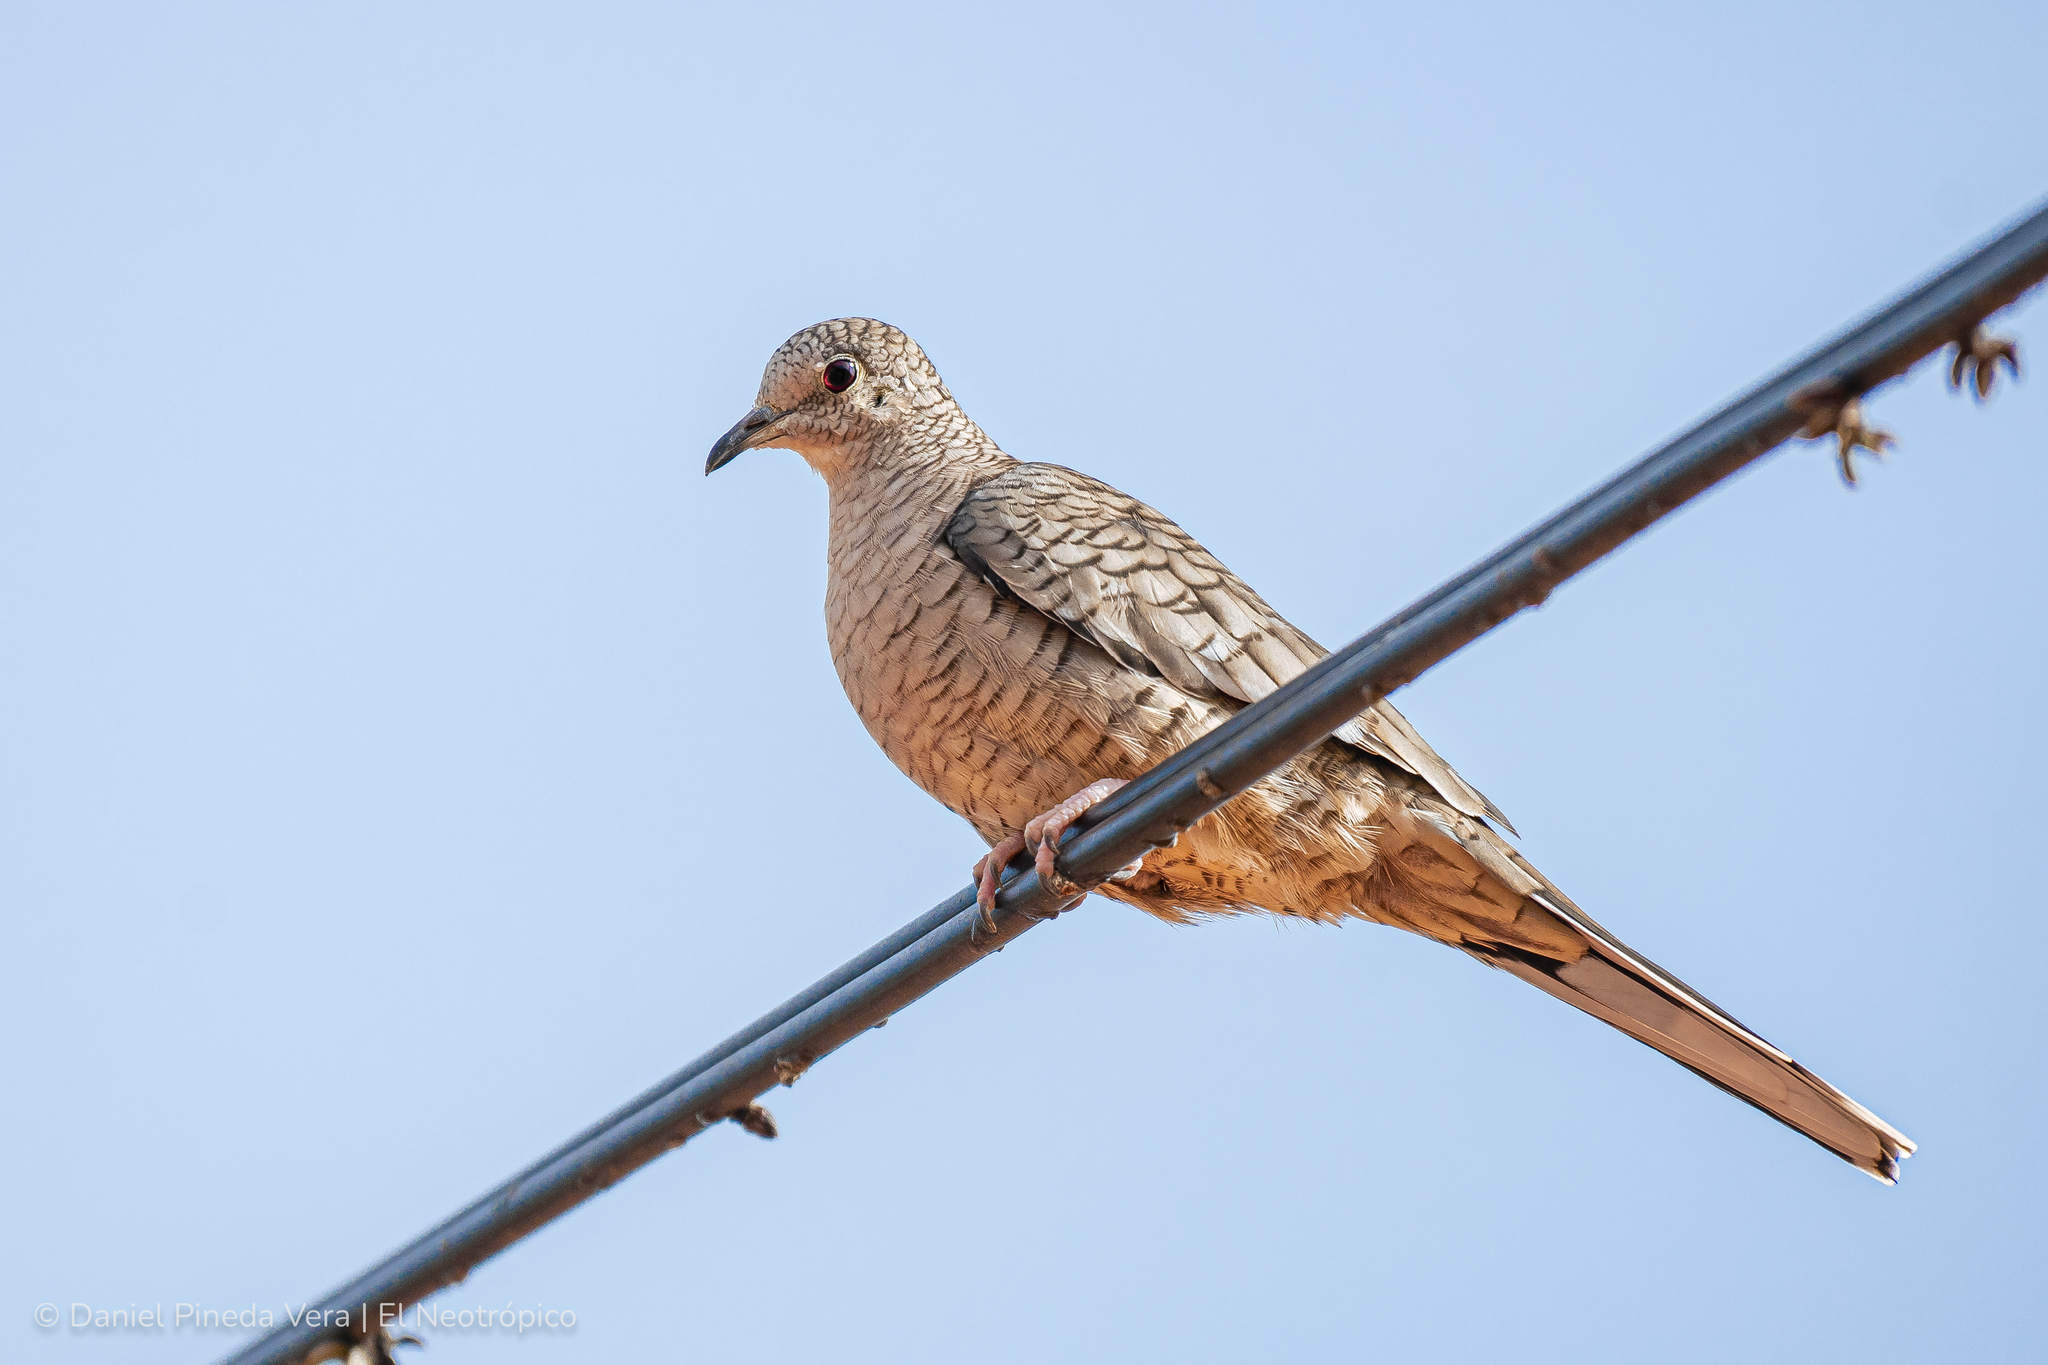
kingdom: Animalia
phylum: Chordata
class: Aves
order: Columbiformes
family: Columbidae
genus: Columbina
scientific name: Columbina inca
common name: Inca dove
